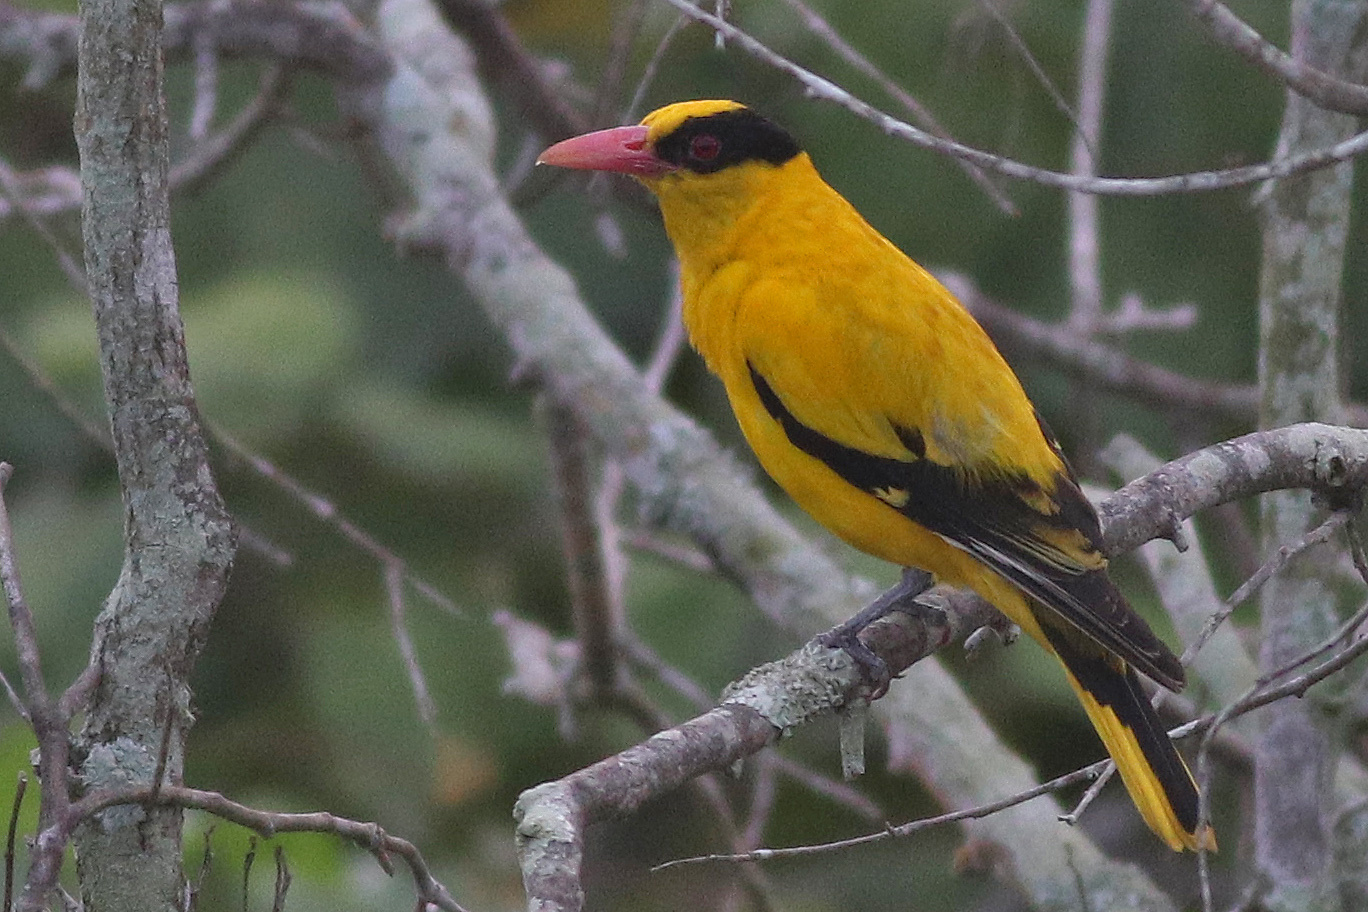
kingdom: Animalia
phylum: Chordata
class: Aves
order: Passeriformes
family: Oriolidae
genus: Oriolus
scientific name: Oriolus chinensis
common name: Black-naped oriole
